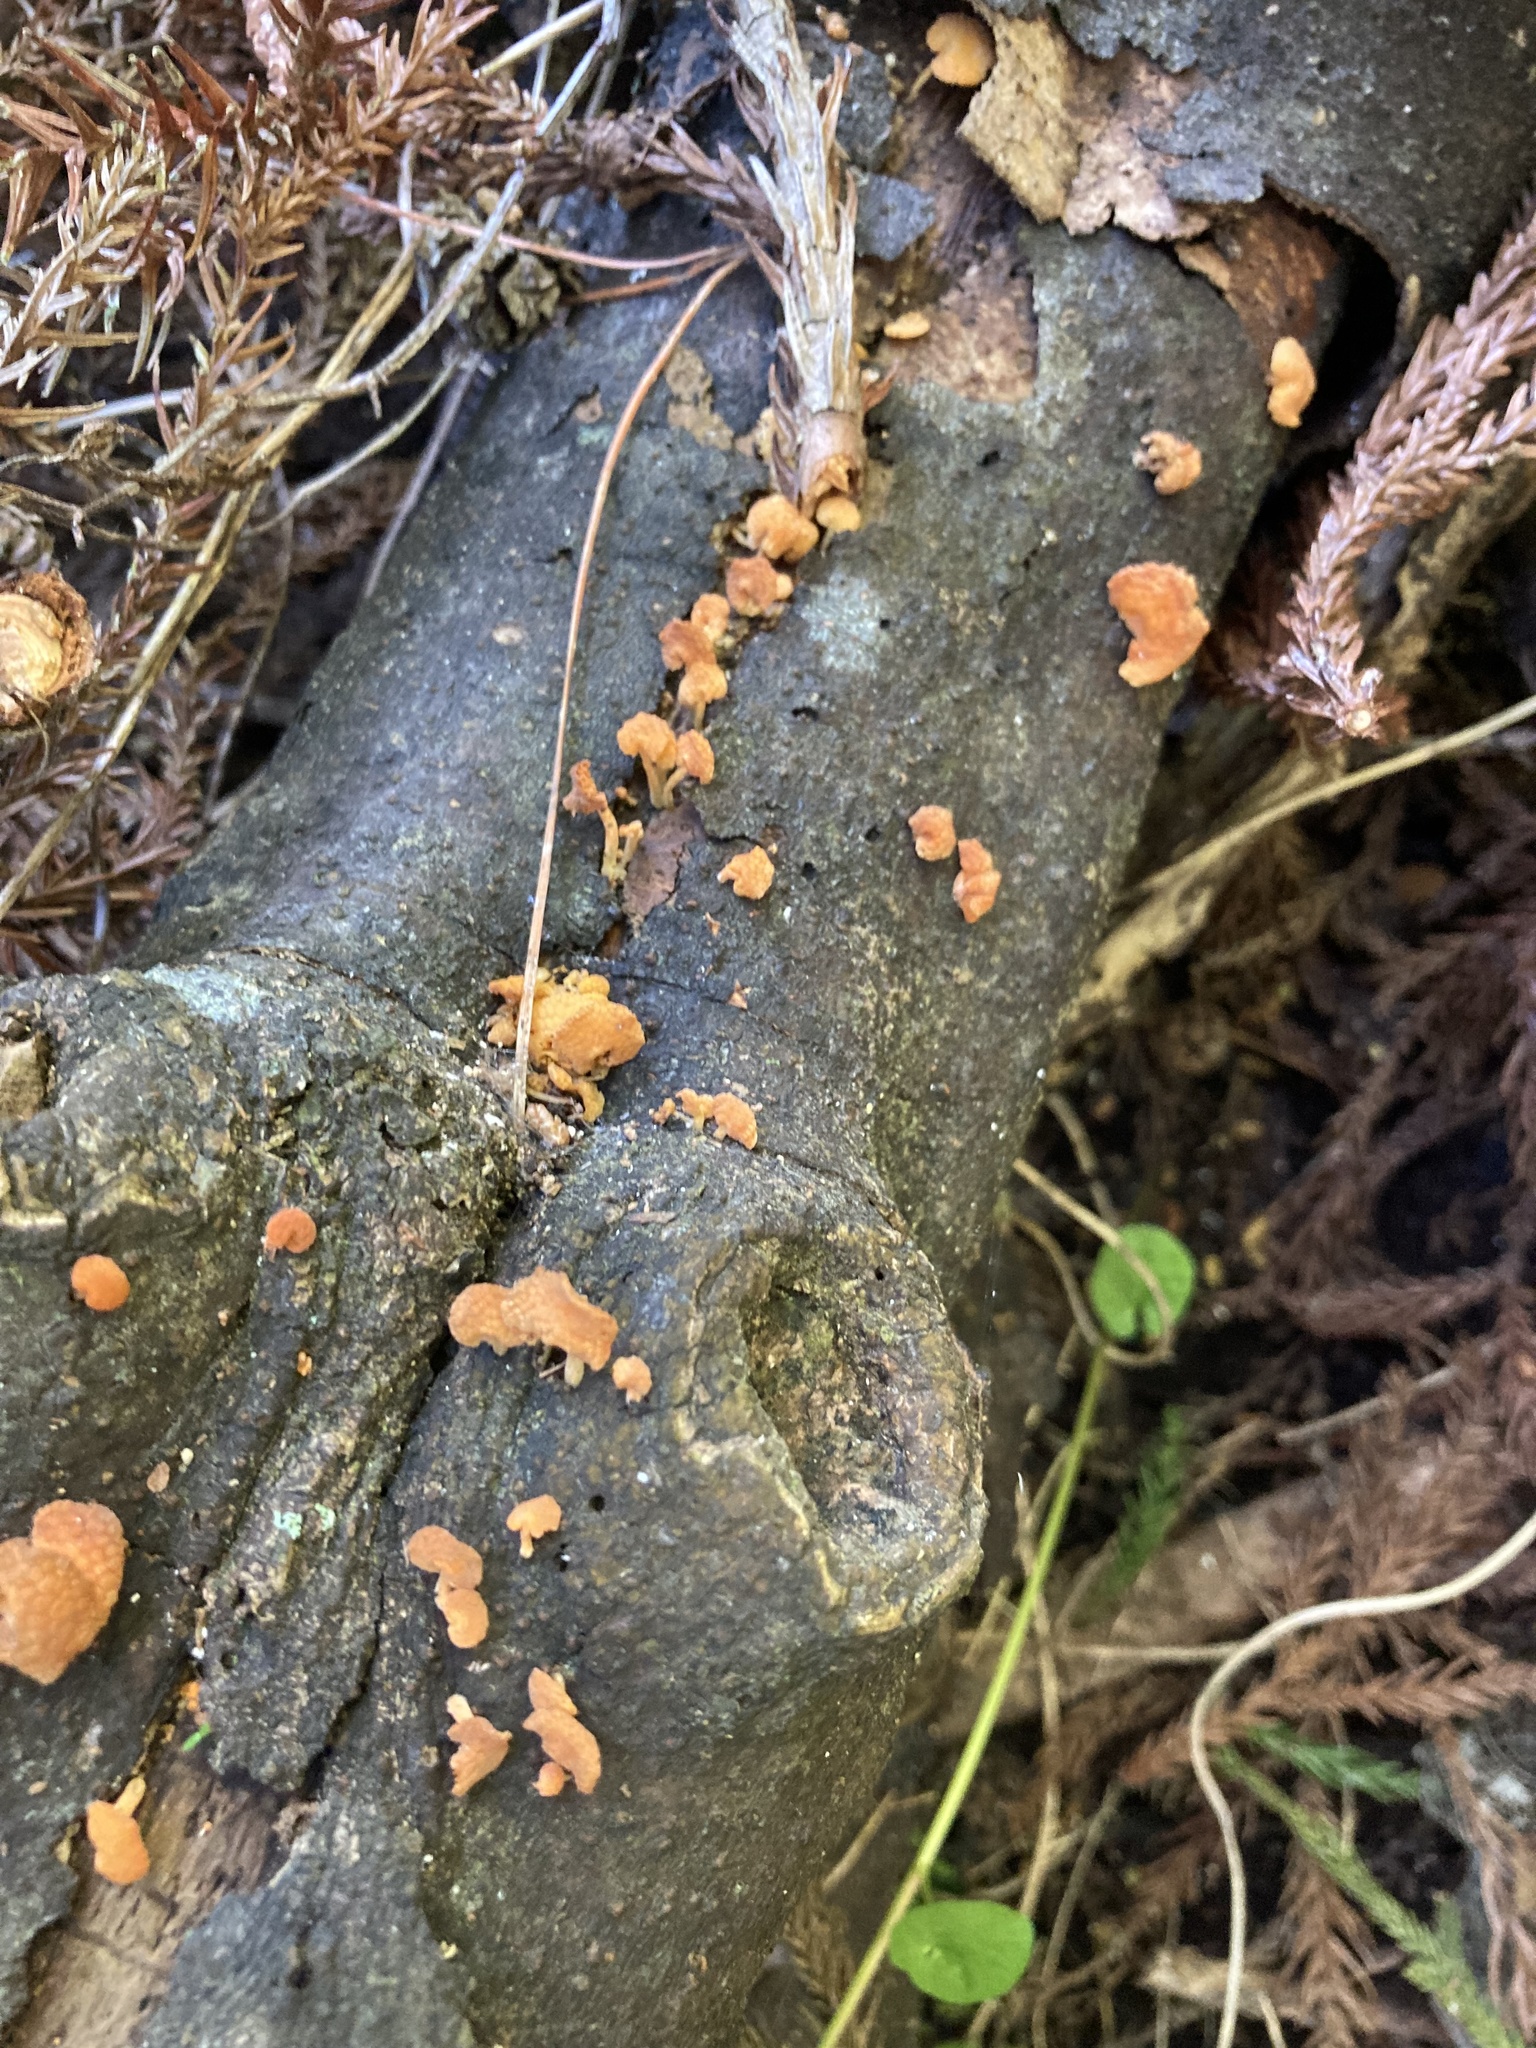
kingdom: Fungi
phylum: Basidiomycota
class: Agaricomycetes
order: Agaricales
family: Mycenaceae
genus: Favolaschia
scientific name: Favolaschia claudopus
